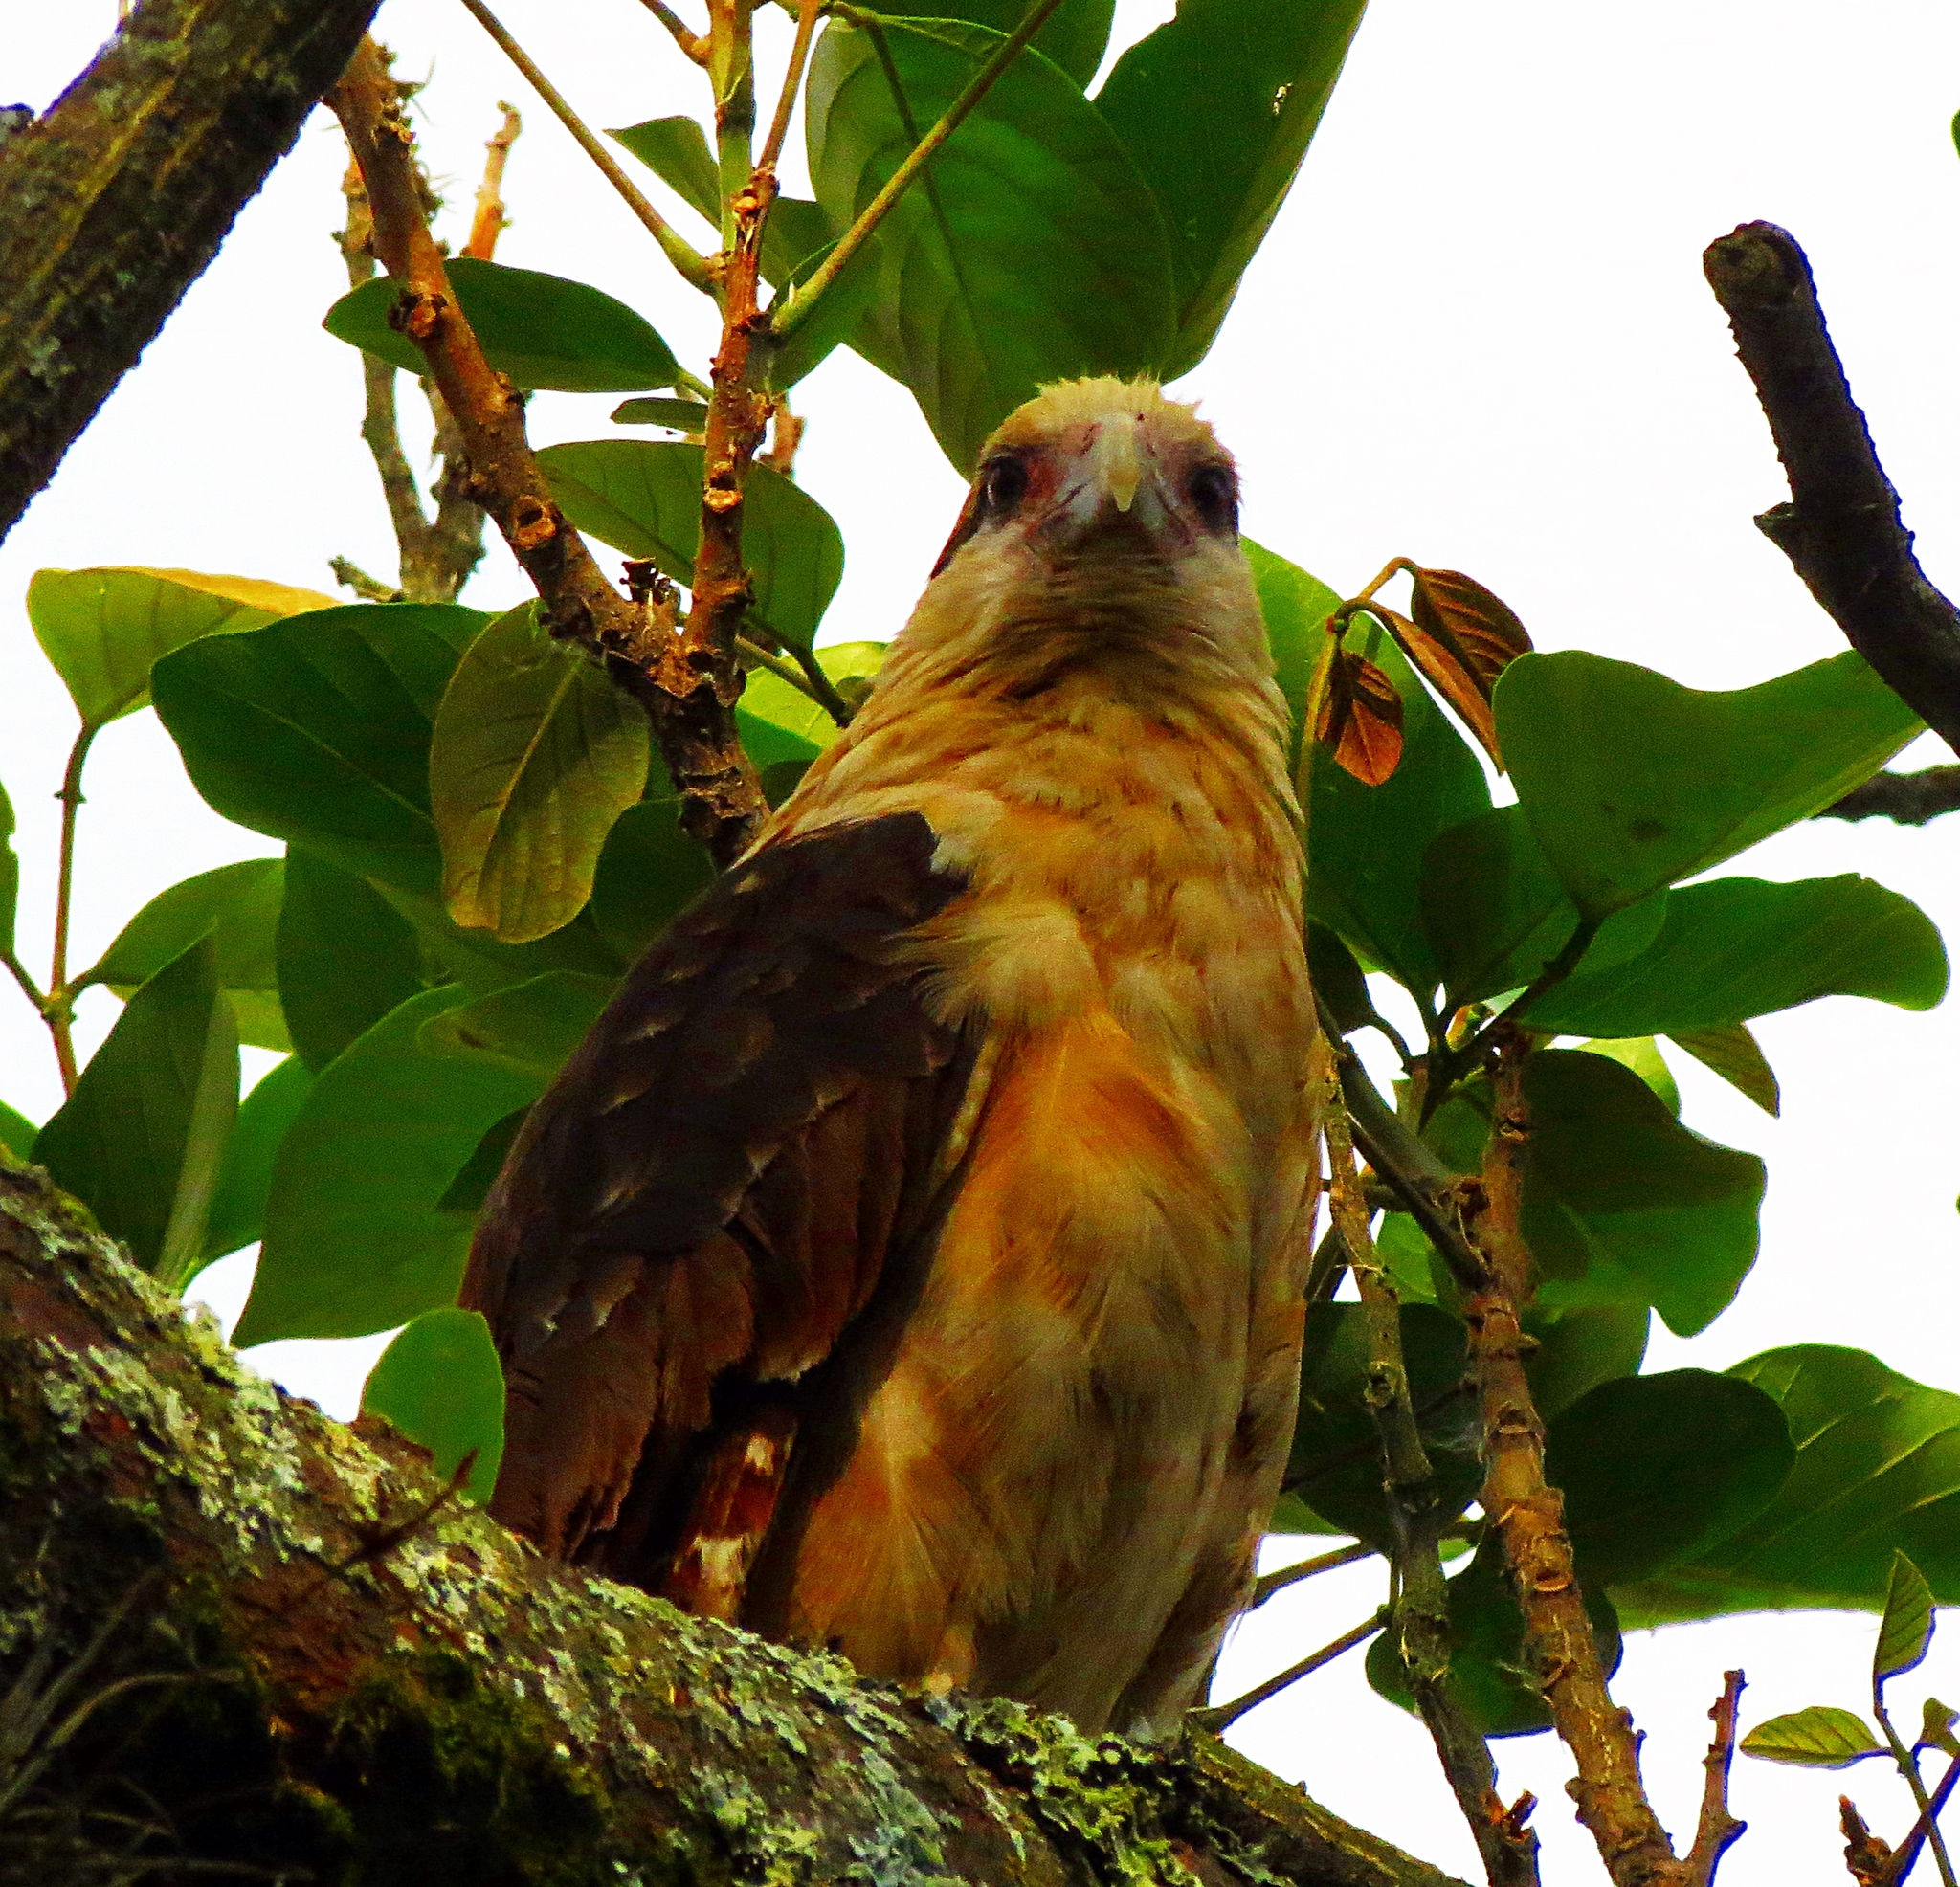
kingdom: Animalia
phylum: Chordata
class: Aves
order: Falconiformes
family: Falconidae
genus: Daptrius
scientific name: Daptrius
